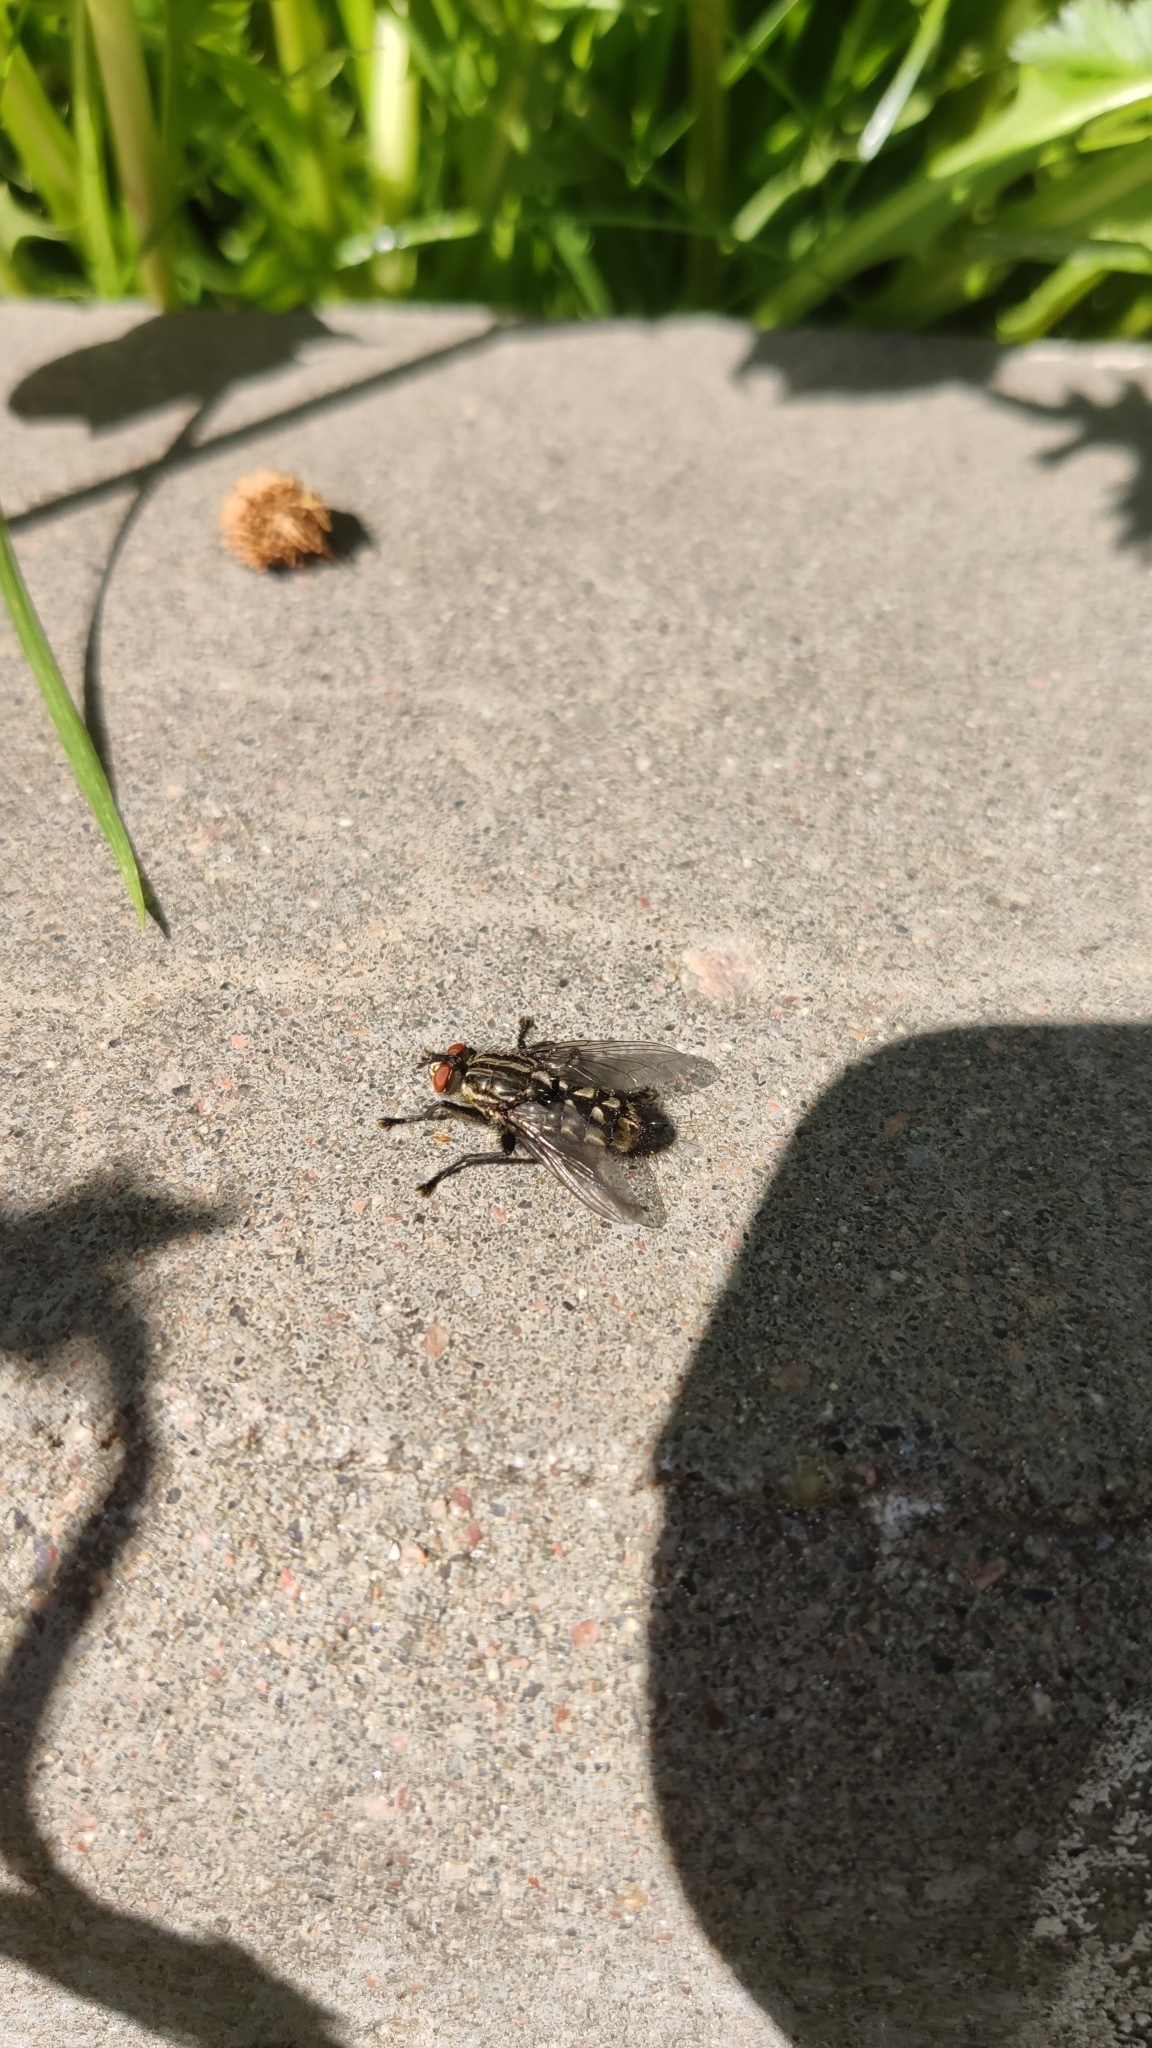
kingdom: Animalia
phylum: Arthropoda
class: Insecta
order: Diptera
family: Sarcophagidae
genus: Sarcophaga
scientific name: Sarcophaga
